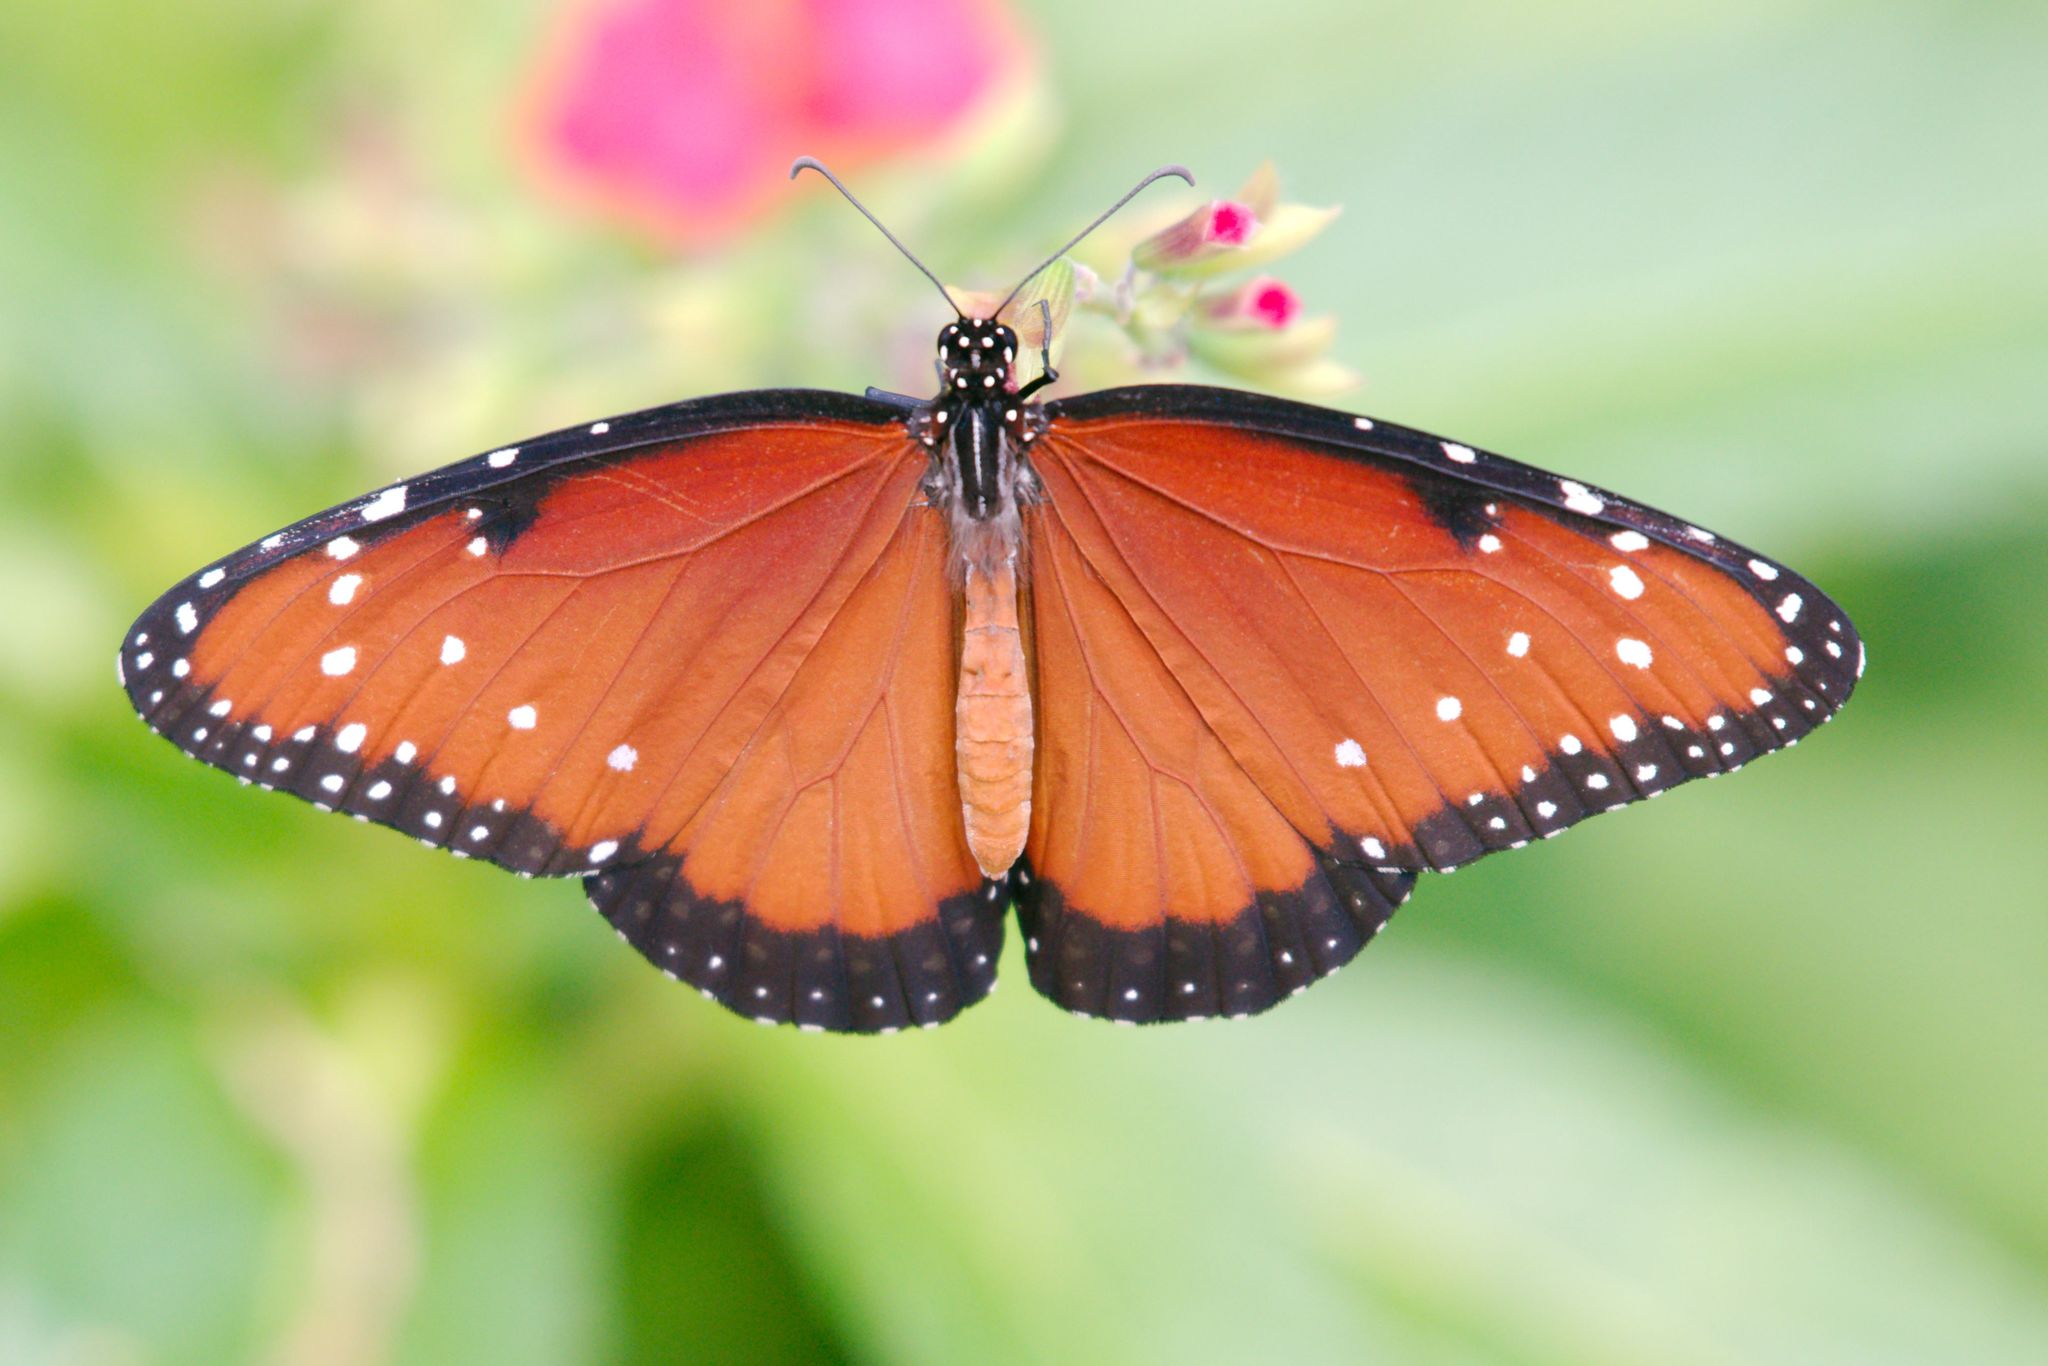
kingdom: Animalia
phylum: Arthropoda
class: Insecta
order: Lepidoptera
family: Nymphalidae
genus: Danaus
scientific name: Danaus gilippus
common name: Queen
